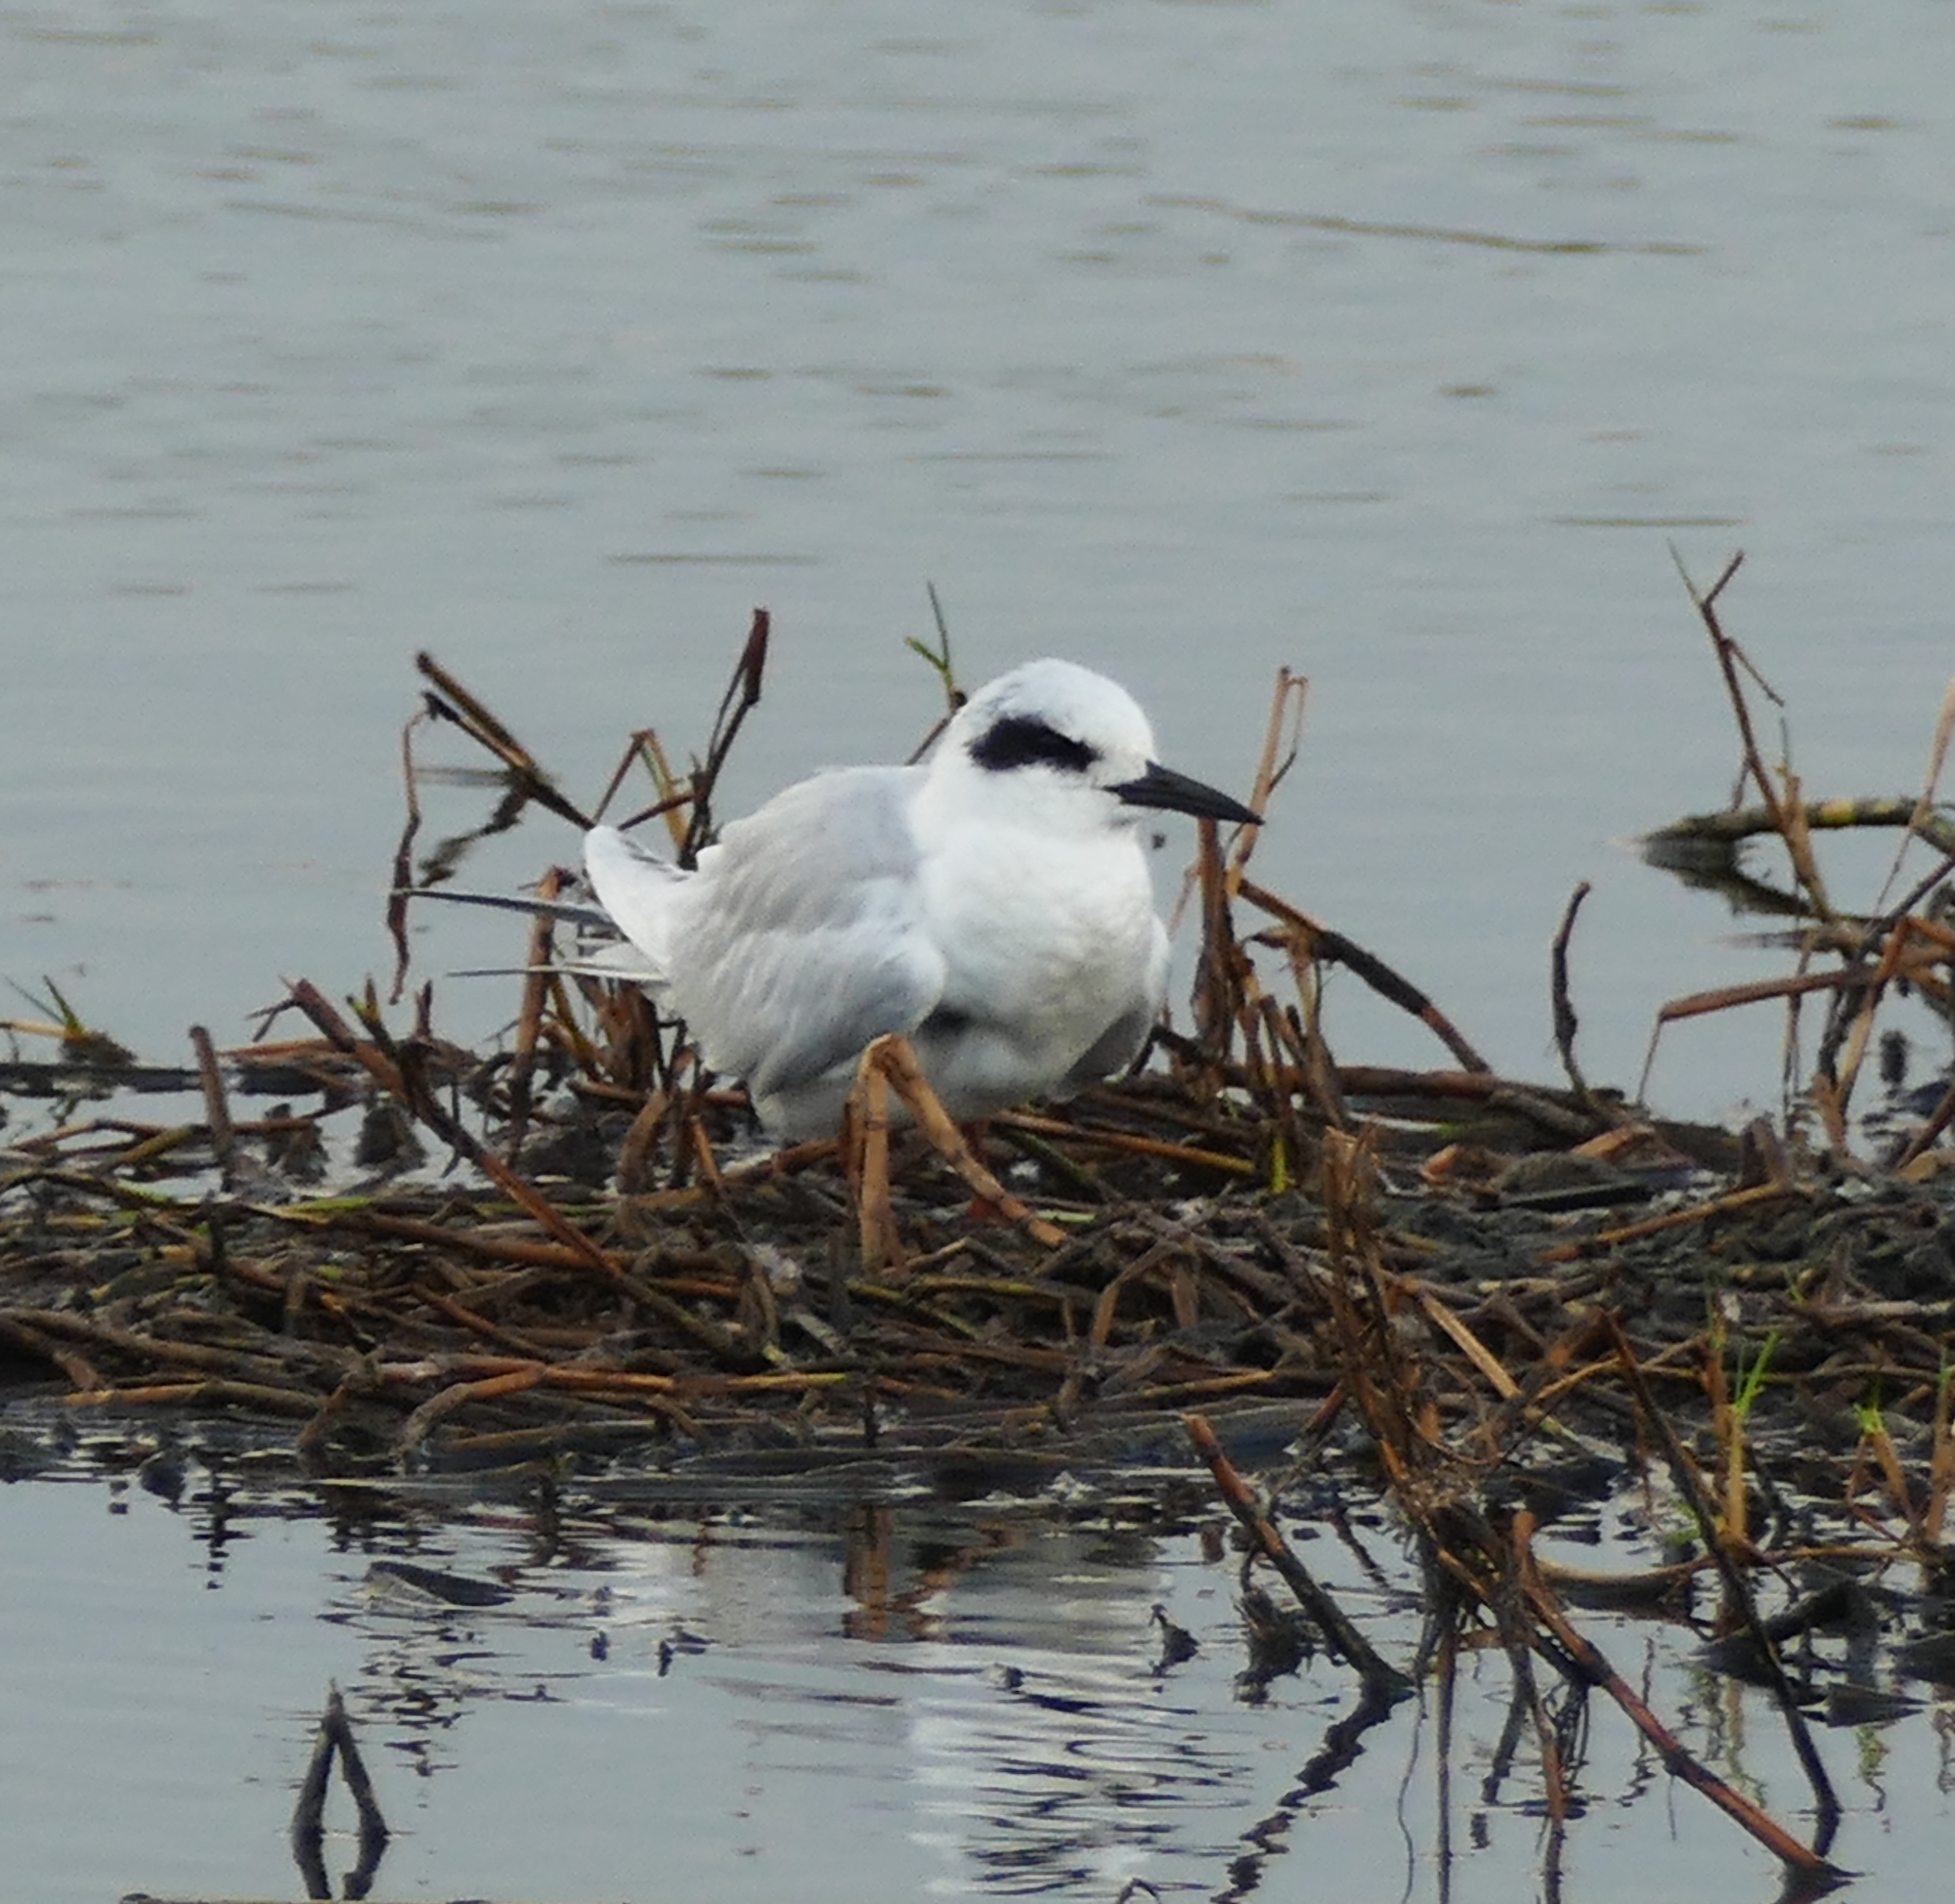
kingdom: Animalia
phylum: Chordata
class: Aves
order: Charadriiformes
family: Laridae
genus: Sterna
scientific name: Sterna forsteri
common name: Forster's tern
